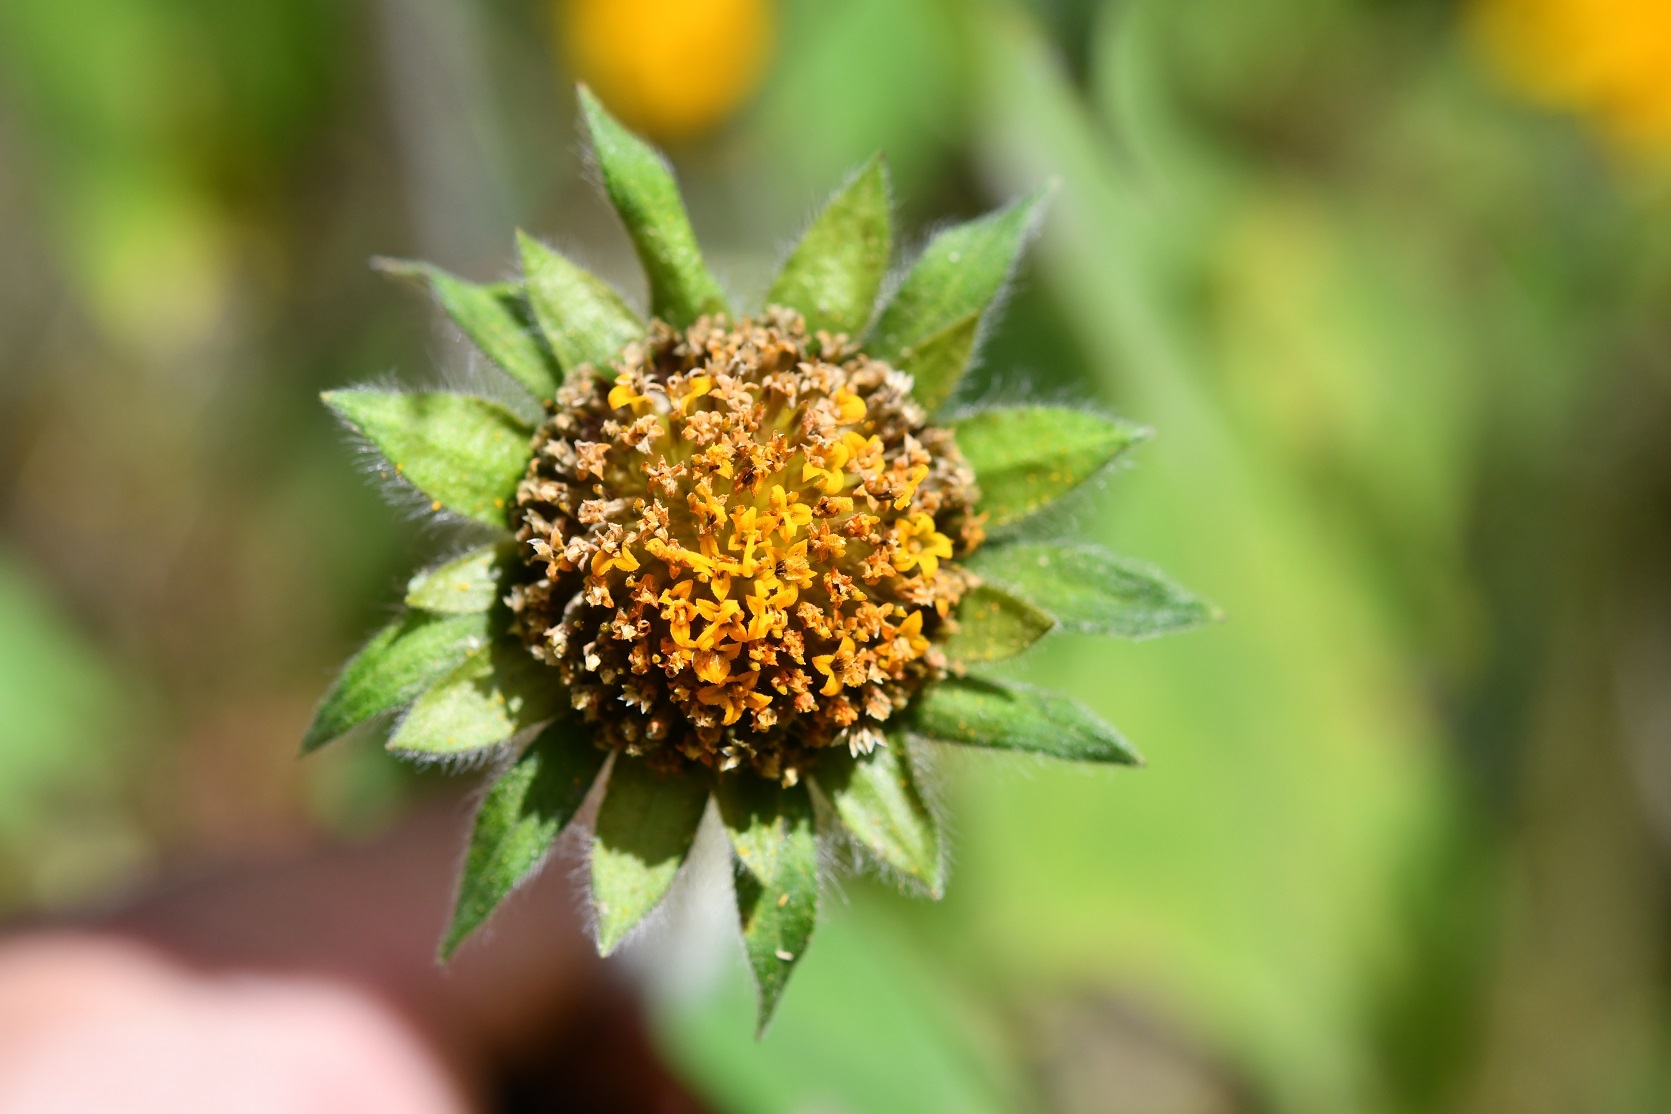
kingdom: Plantae
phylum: Tracheophyta
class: Magnoliopsida
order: Asterales
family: Asteraceae
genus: Tithonia
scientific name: Tithonia tubaeformis
